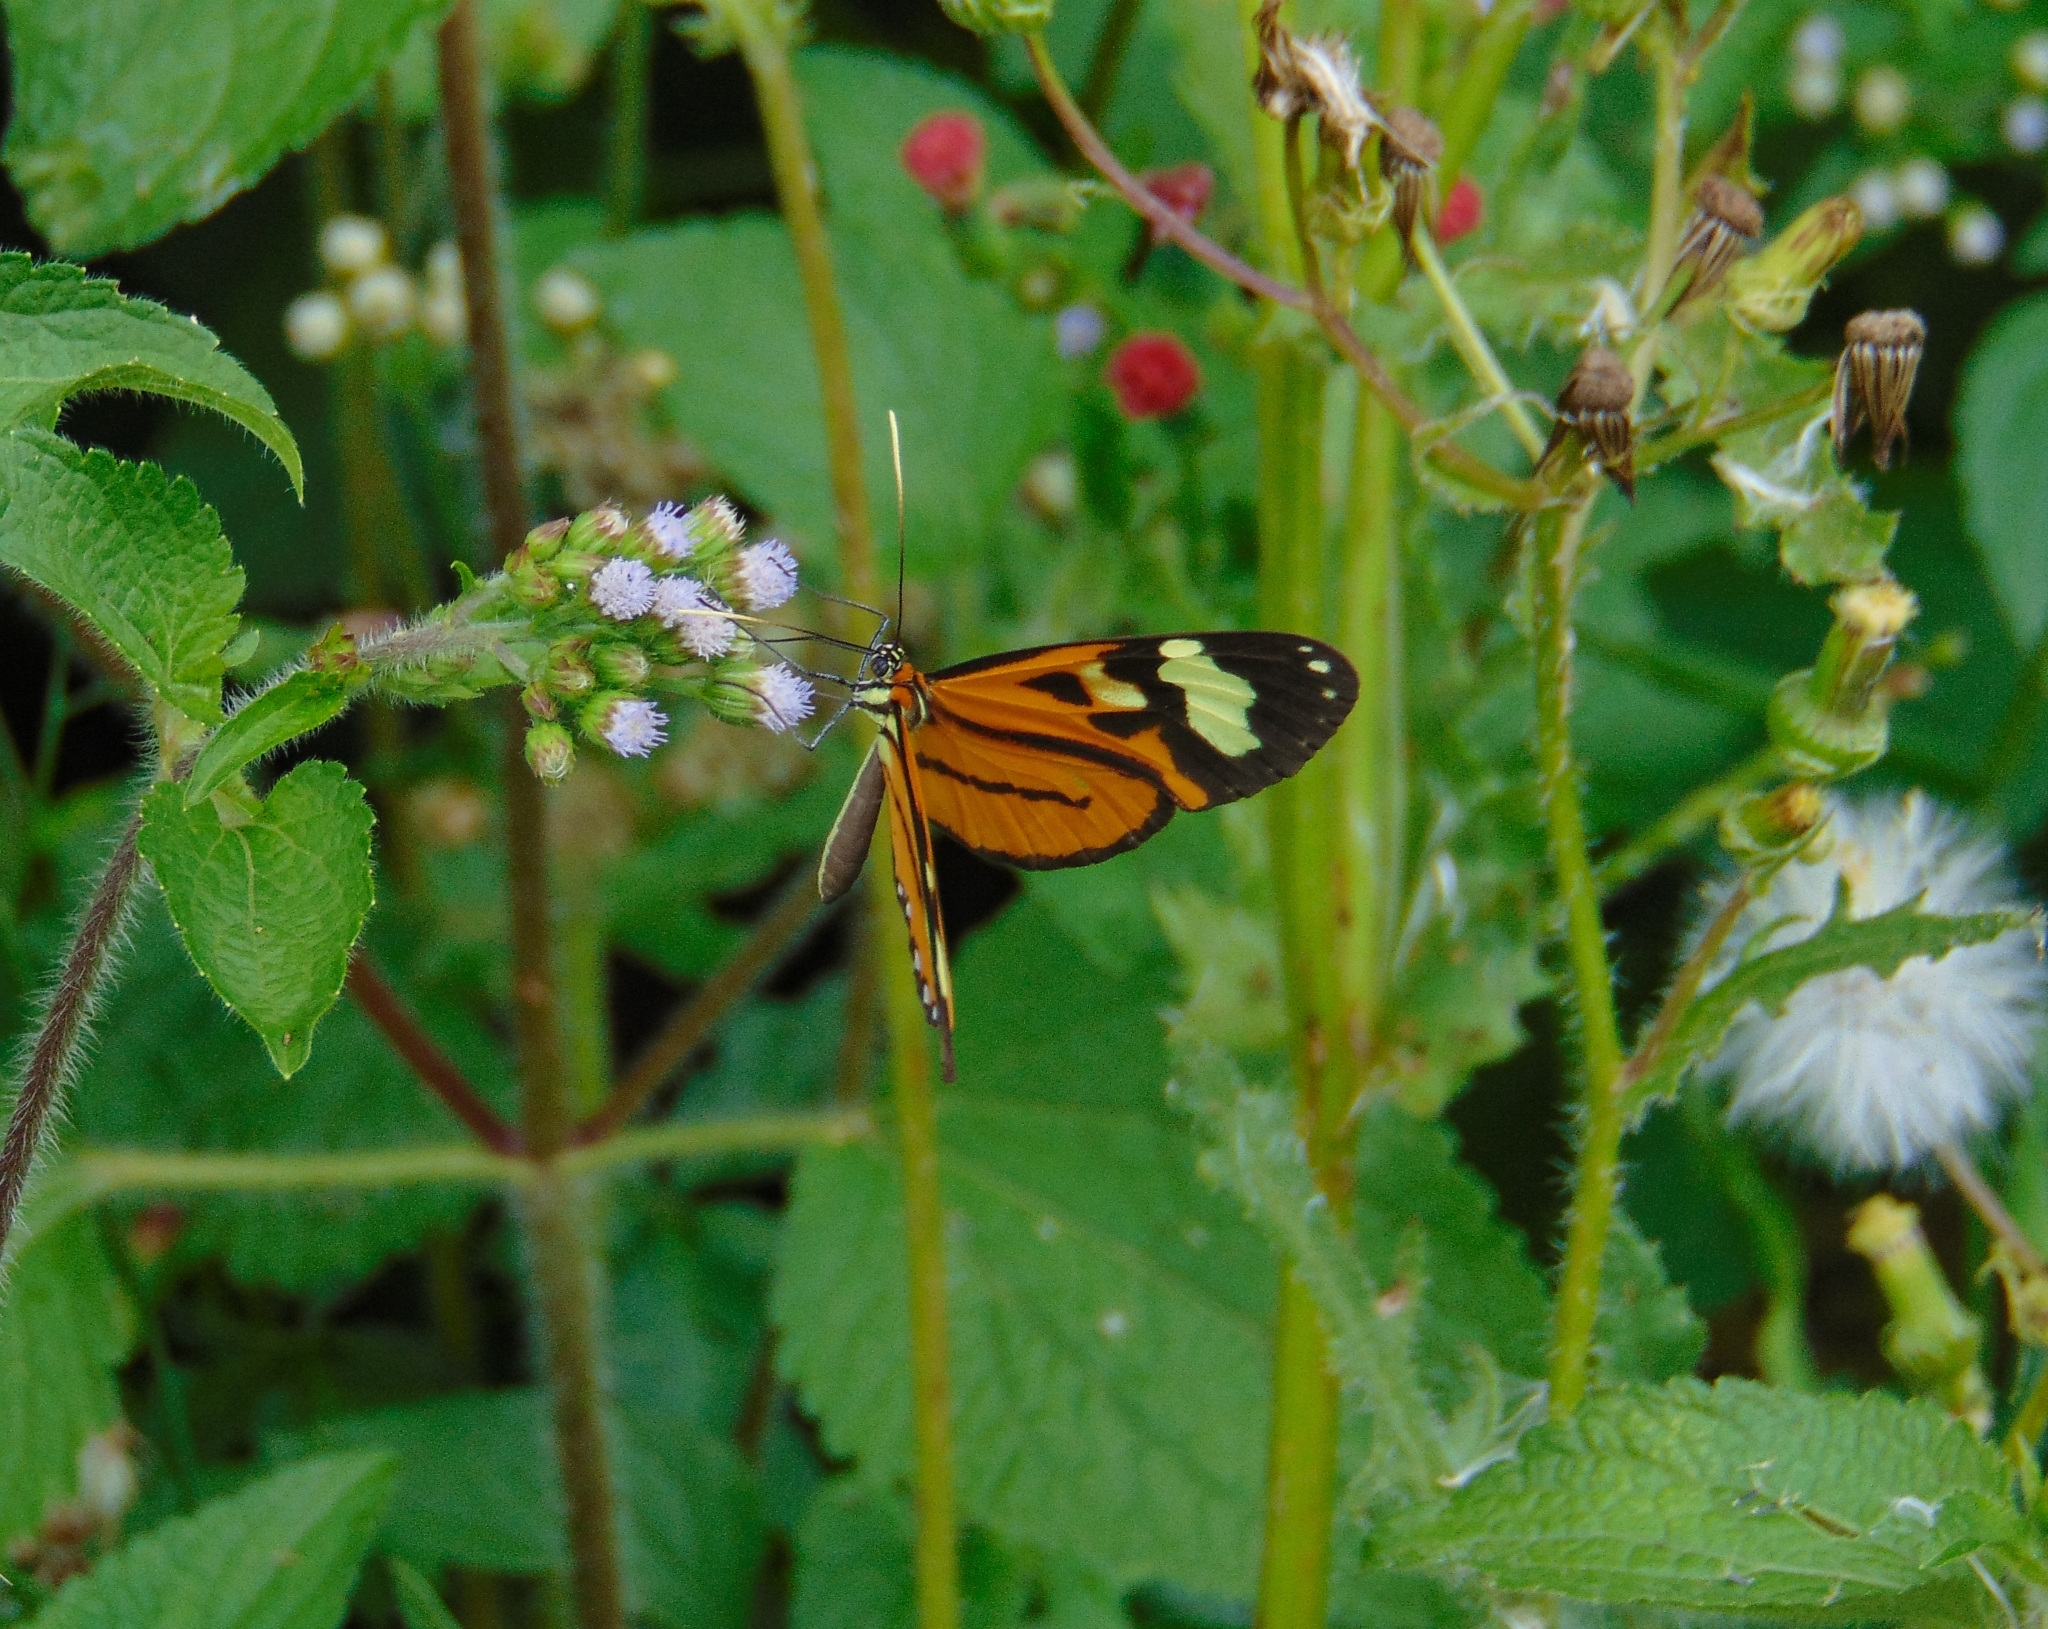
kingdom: Animalia
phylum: Arthropoda
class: Insecta
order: Lepidoptera
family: Nymphalidae
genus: Hypothyris
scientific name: Hypothyris euclea
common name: Euclea tigerwing
